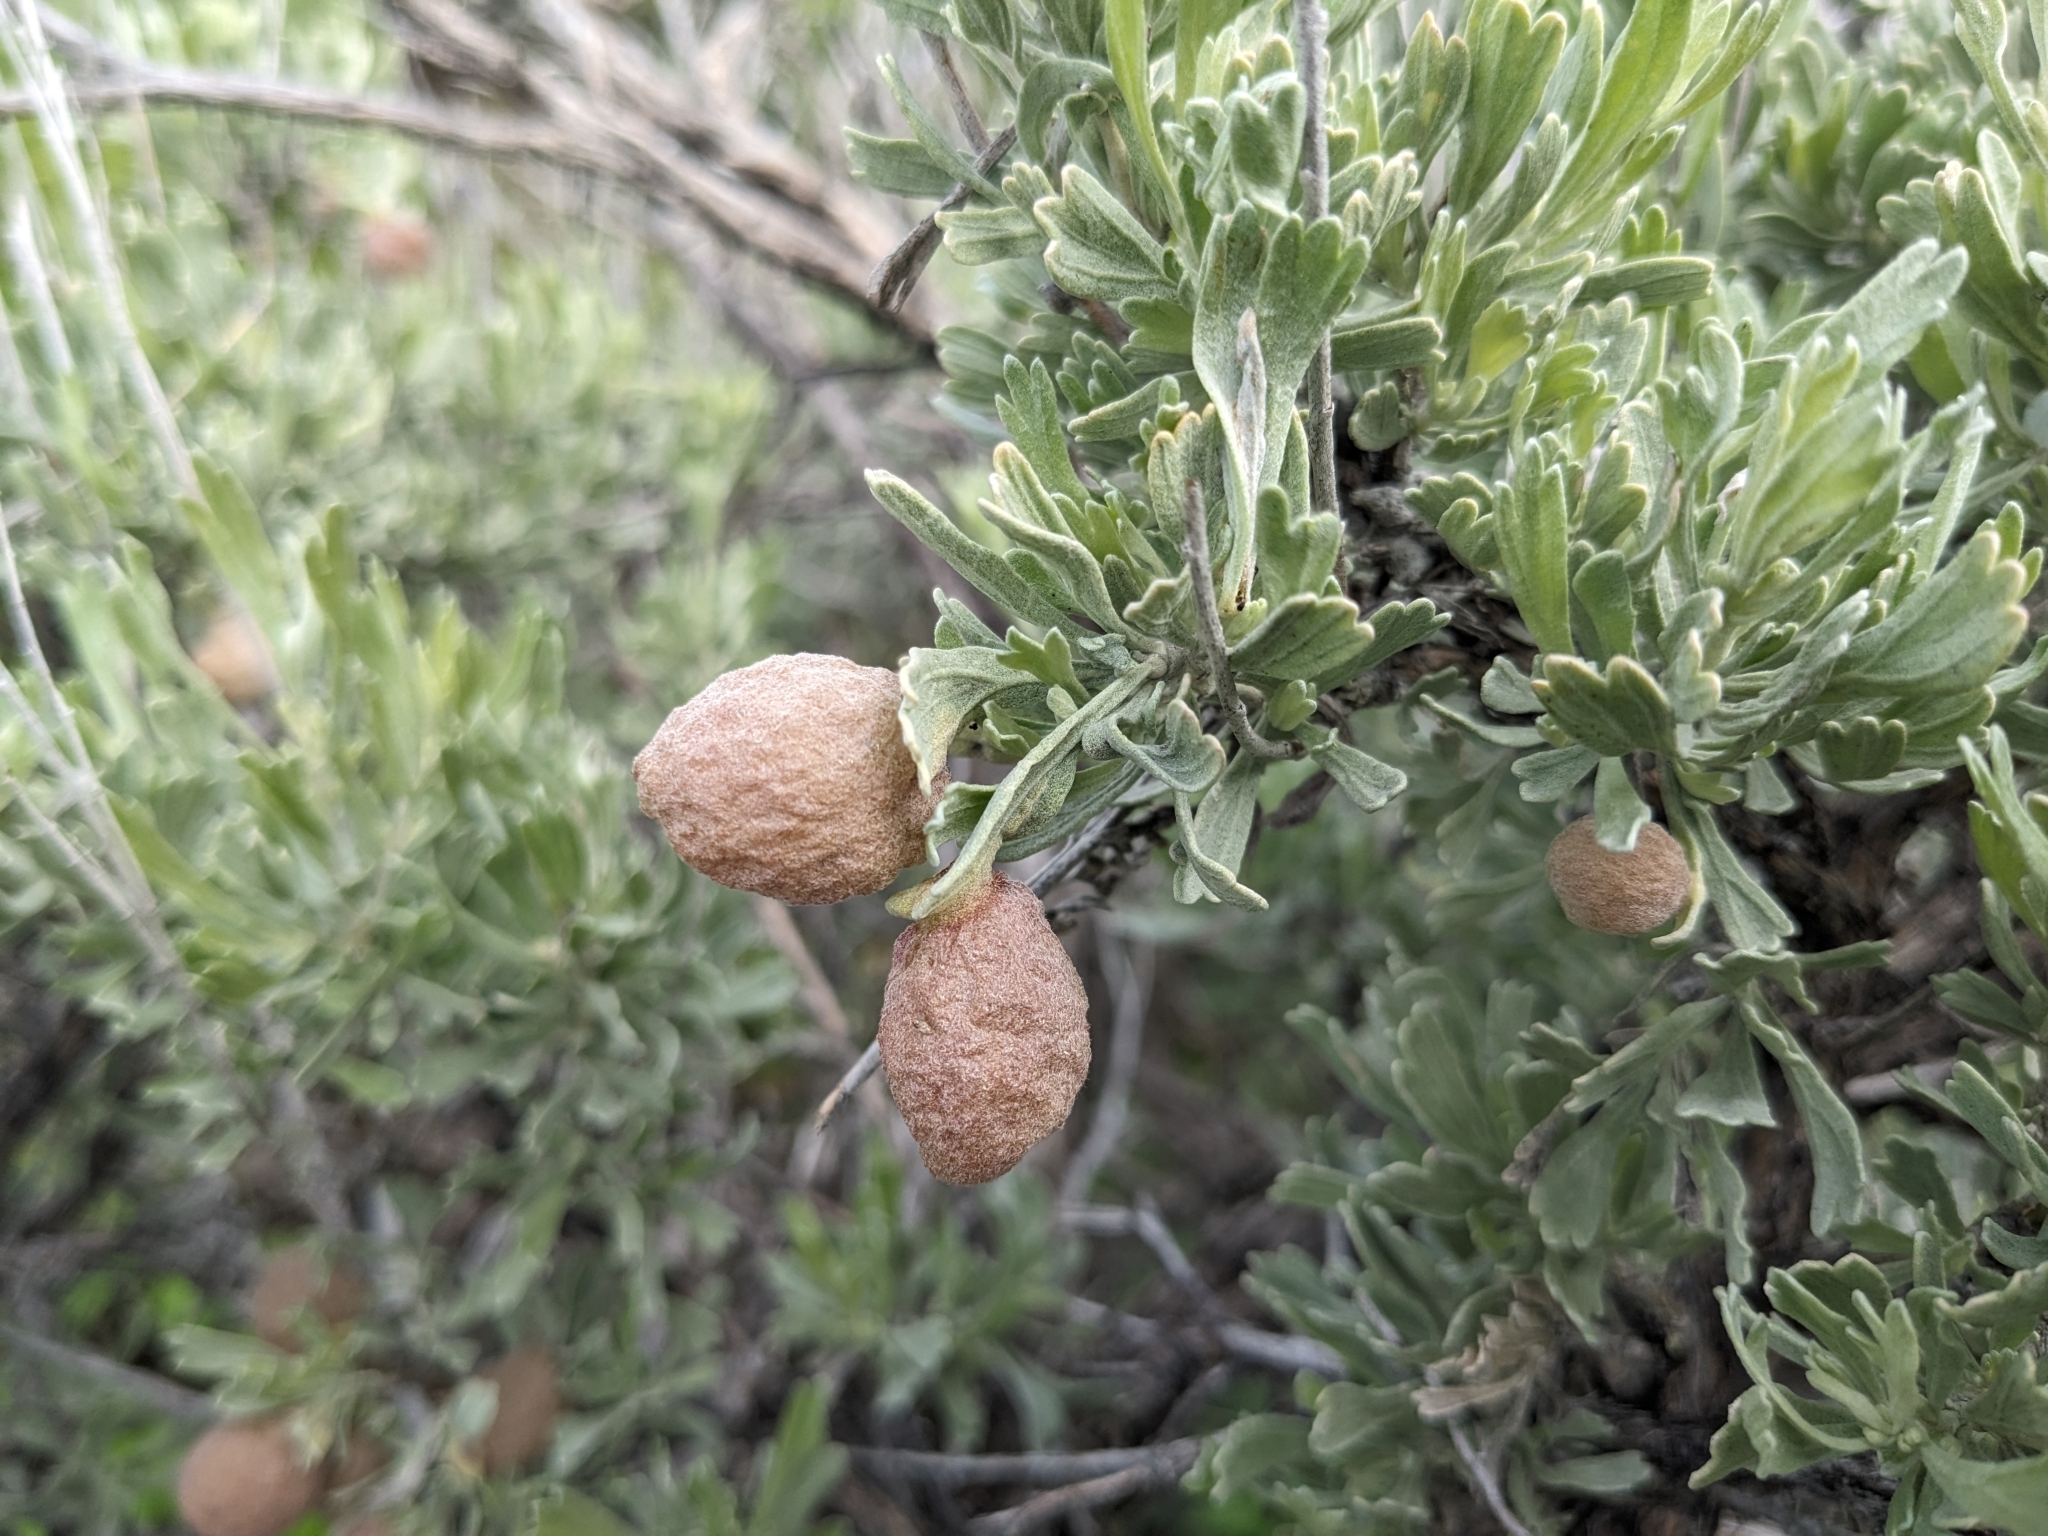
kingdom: Animalia
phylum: Arthropoda
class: Insecta
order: Diptera
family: Cecidomyiidae
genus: Rhopalomyia
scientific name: Rhopalomyia pomum
